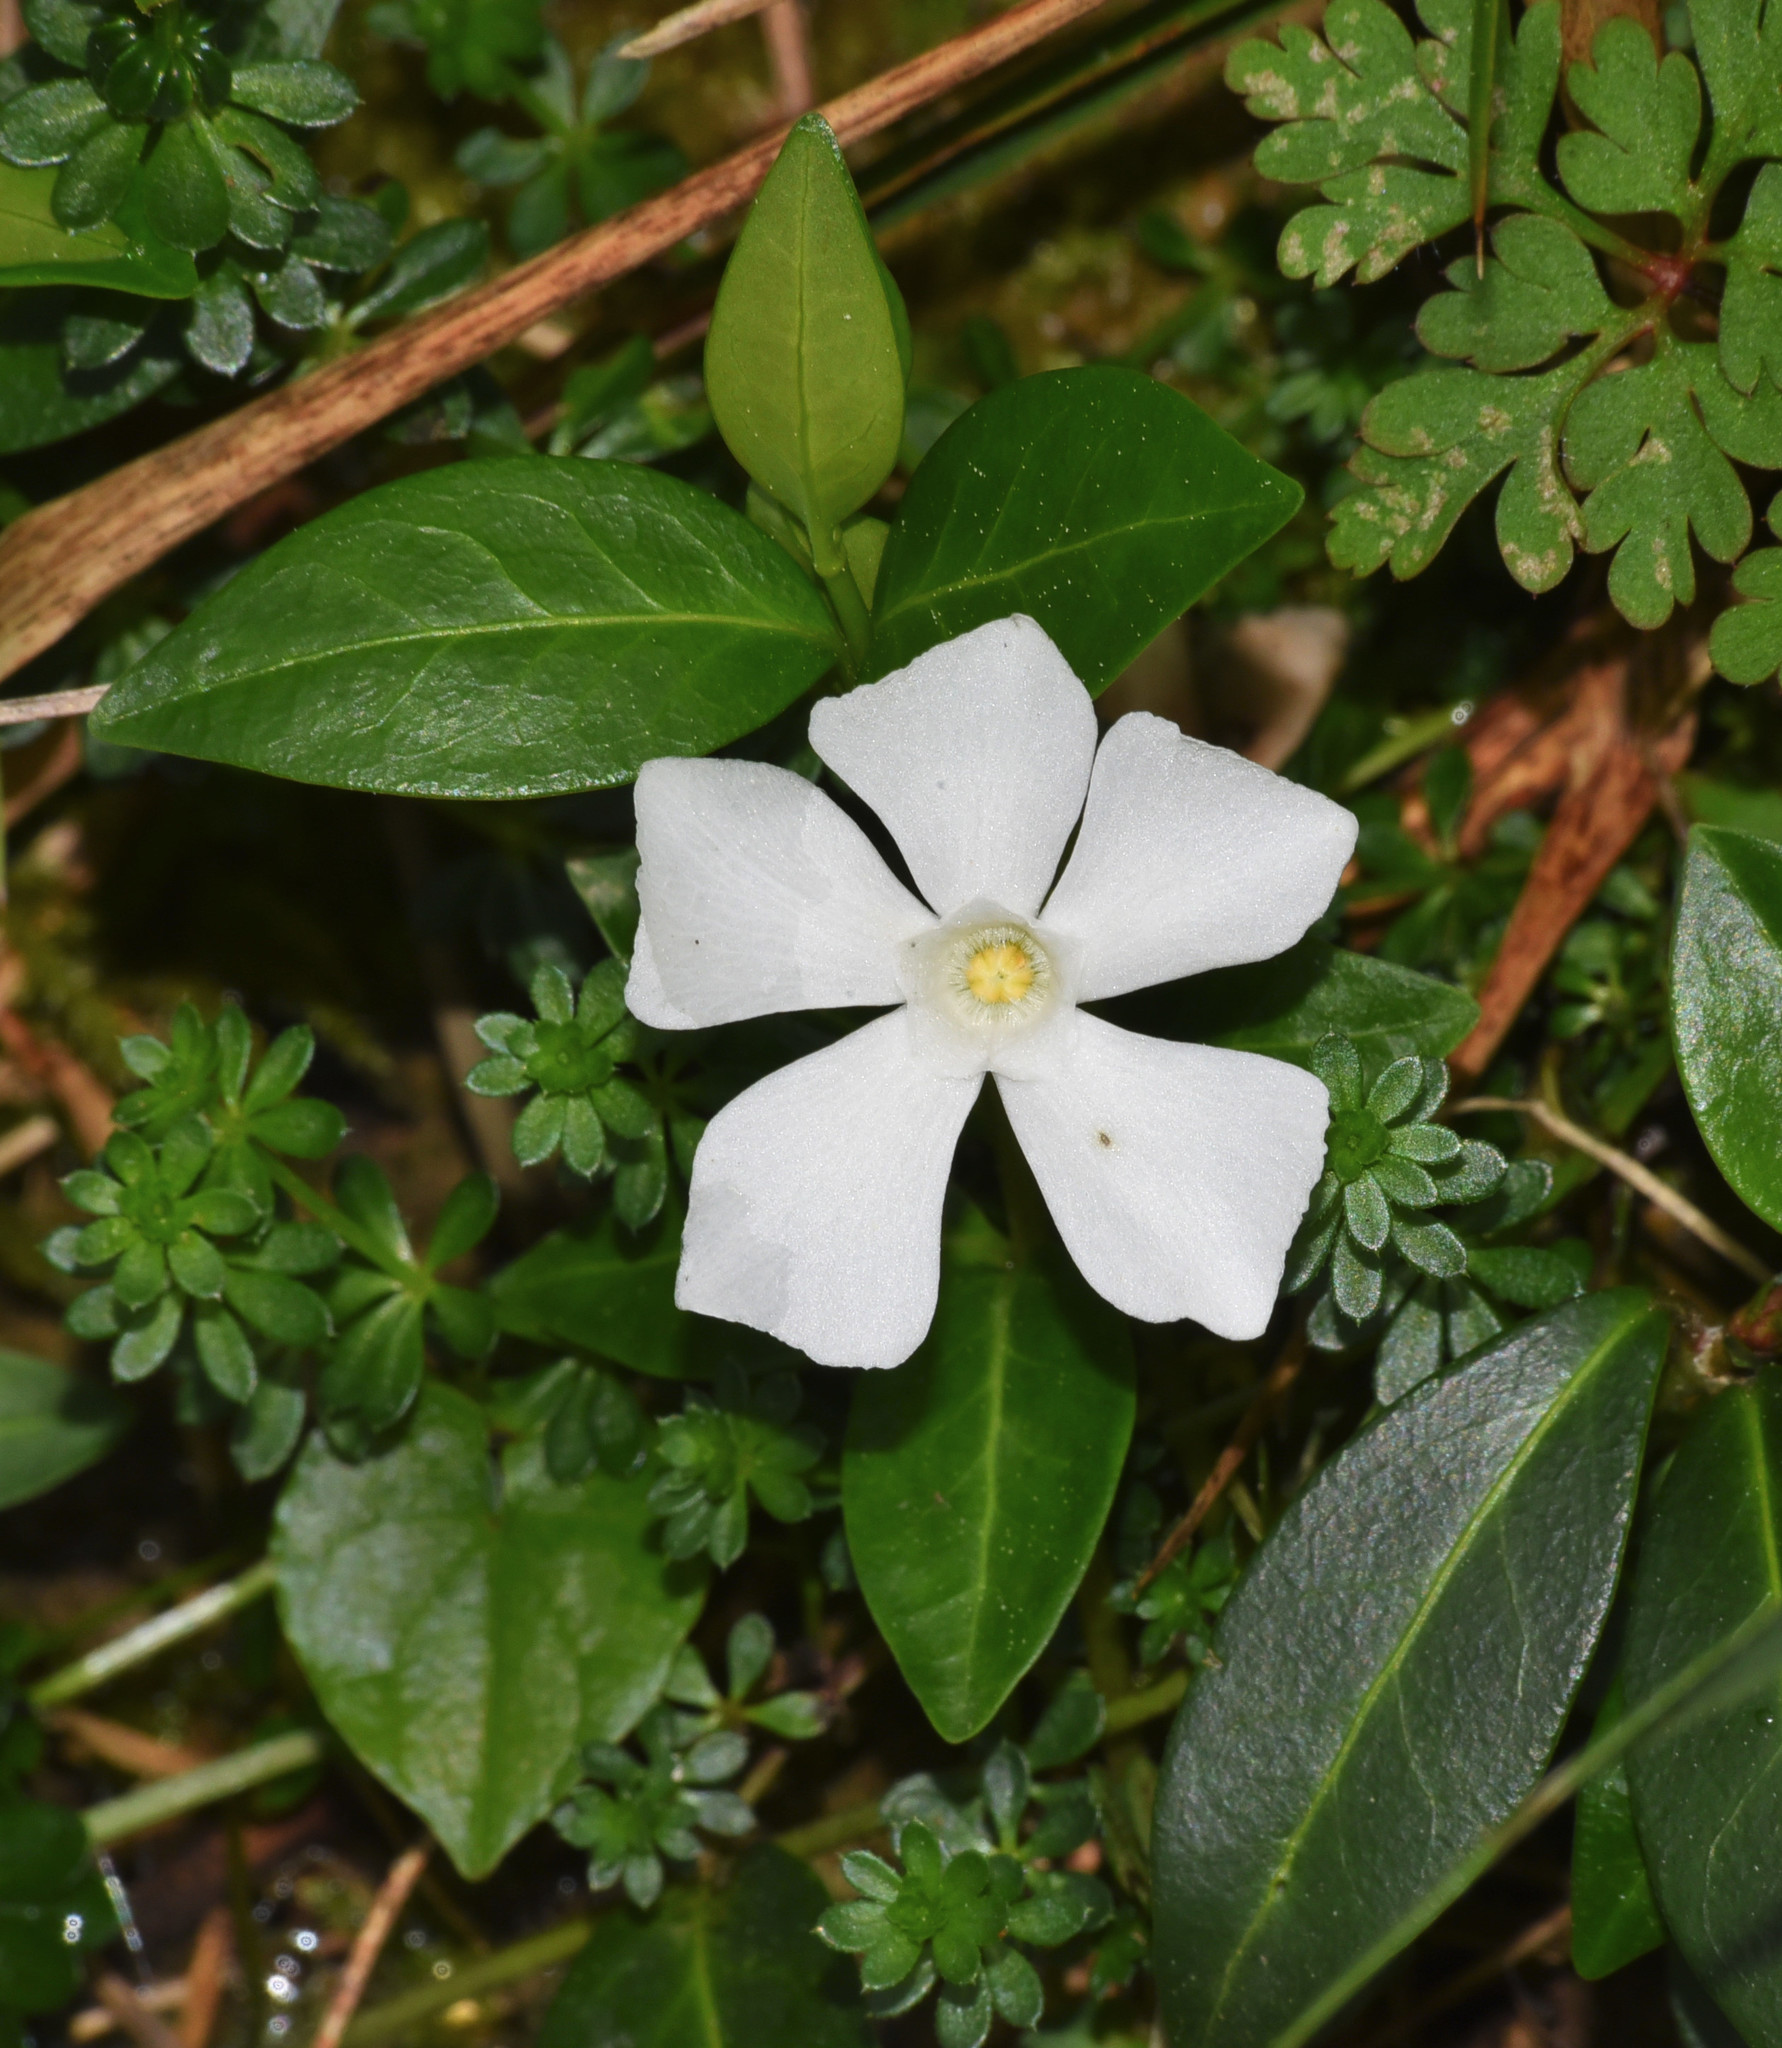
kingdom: Plantae
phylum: Tracheophyta
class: Magnoliopsida
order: Gentianales
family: Apocynaceae
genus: Vinca
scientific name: Vinca minor
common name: Lesser periwinkle
